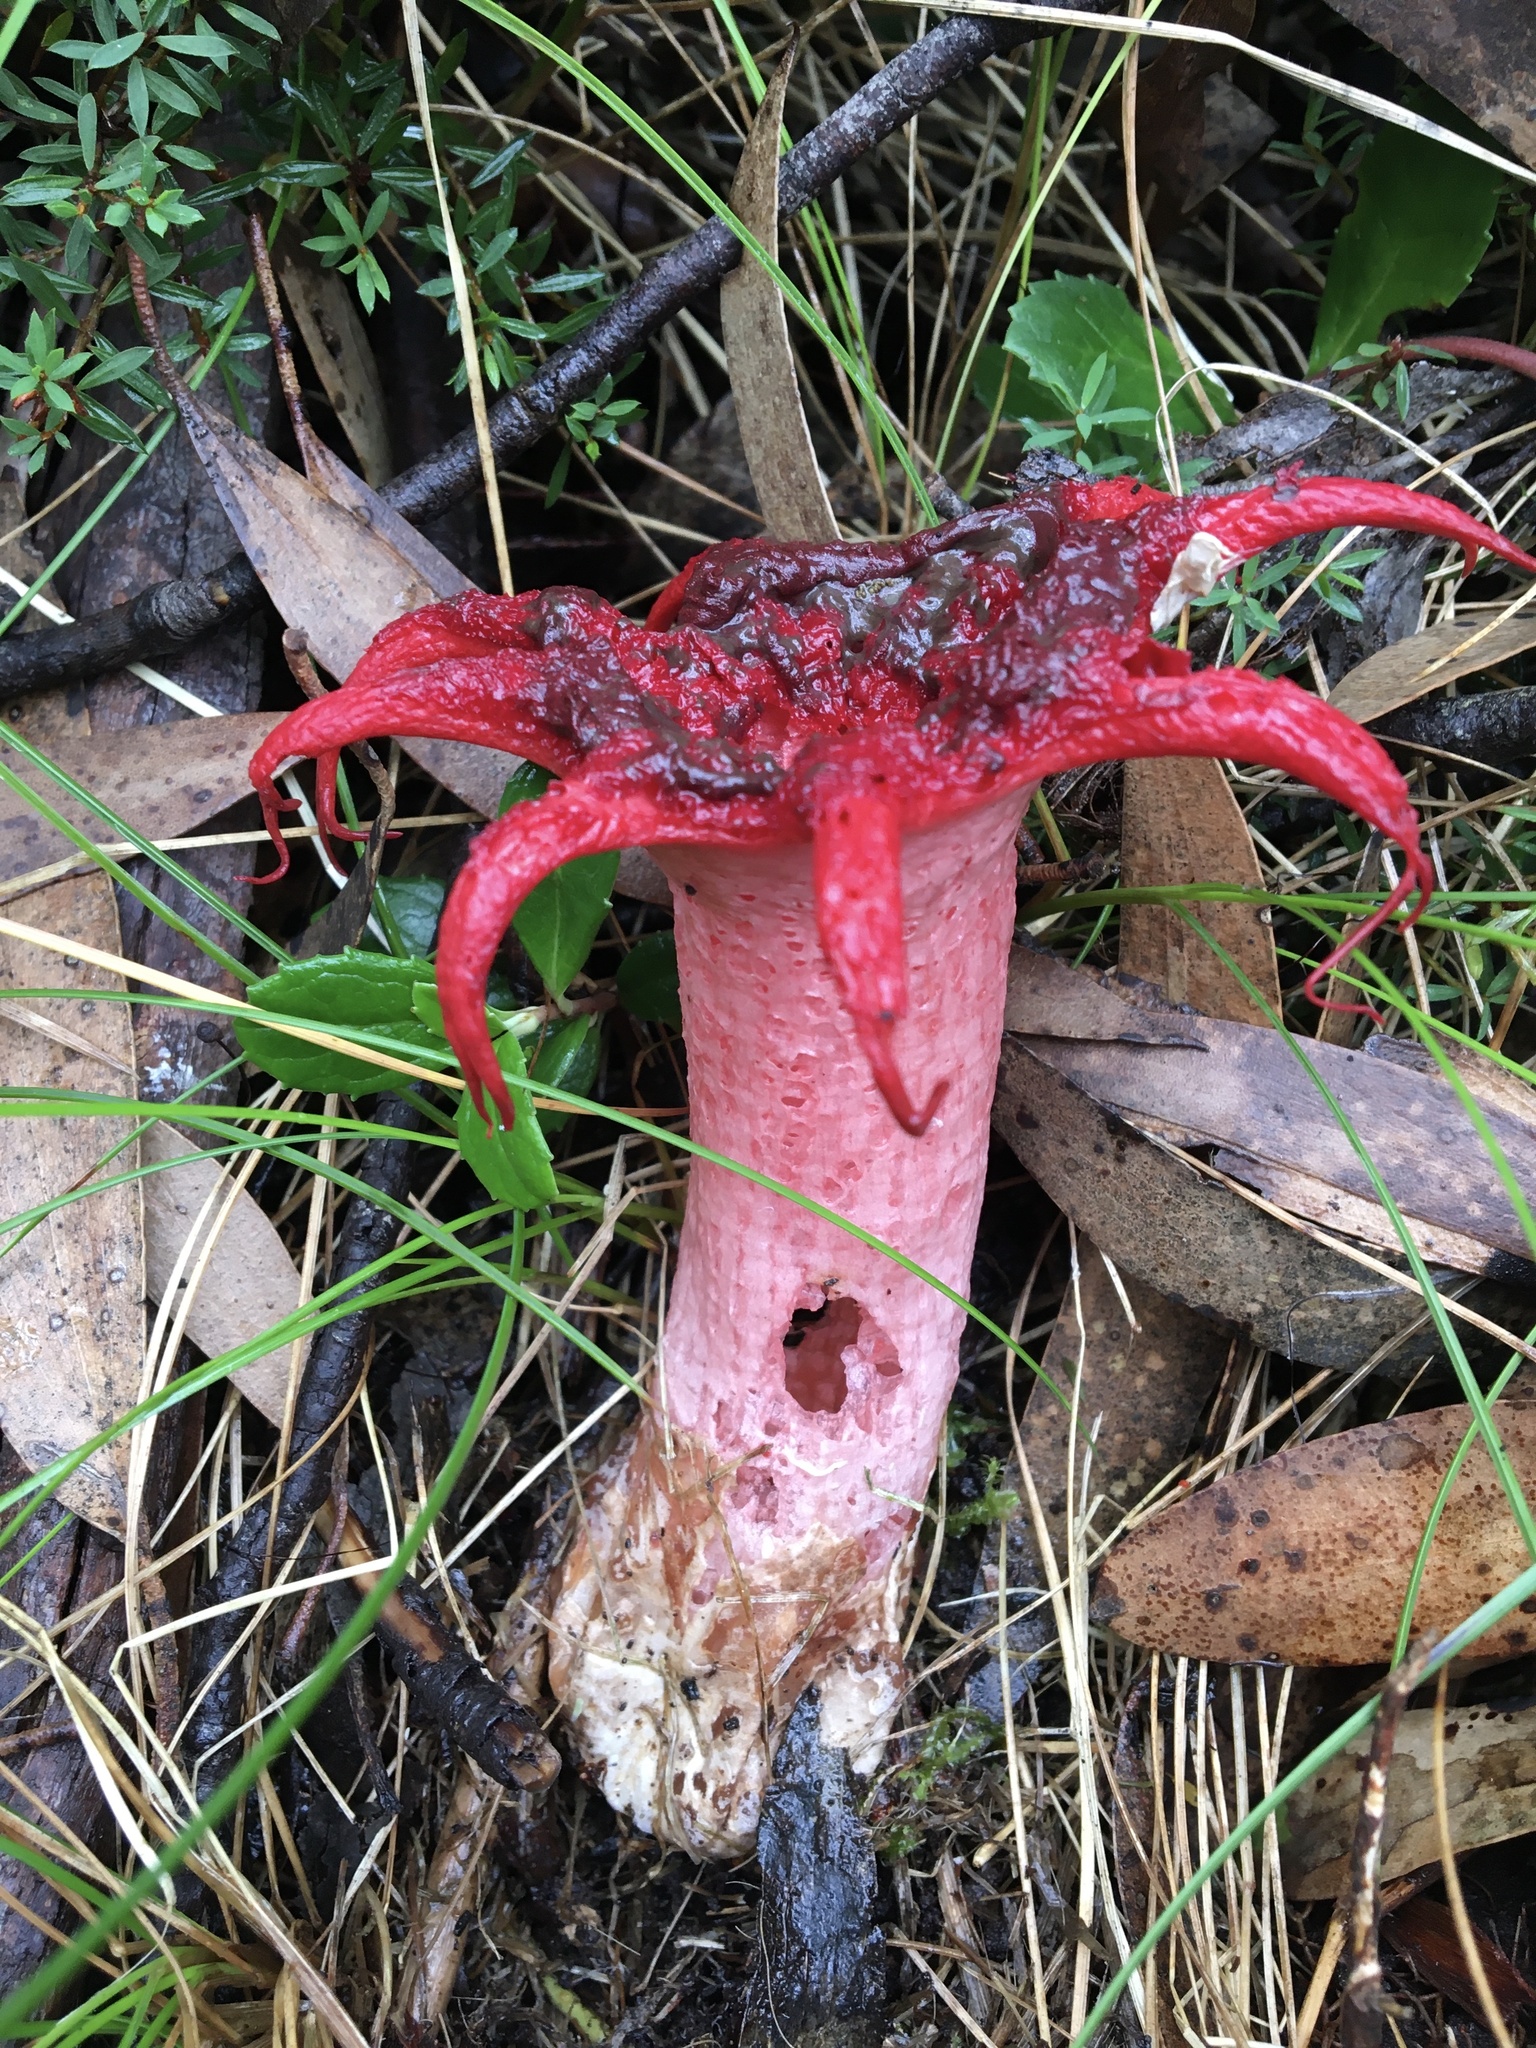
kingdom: Fungi
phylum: Basidiomycota
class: Agaricomycetes
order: Phallales
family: Phallaceae
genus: Aseroe
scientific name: Aseroe rubra
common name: Starfish fungus
